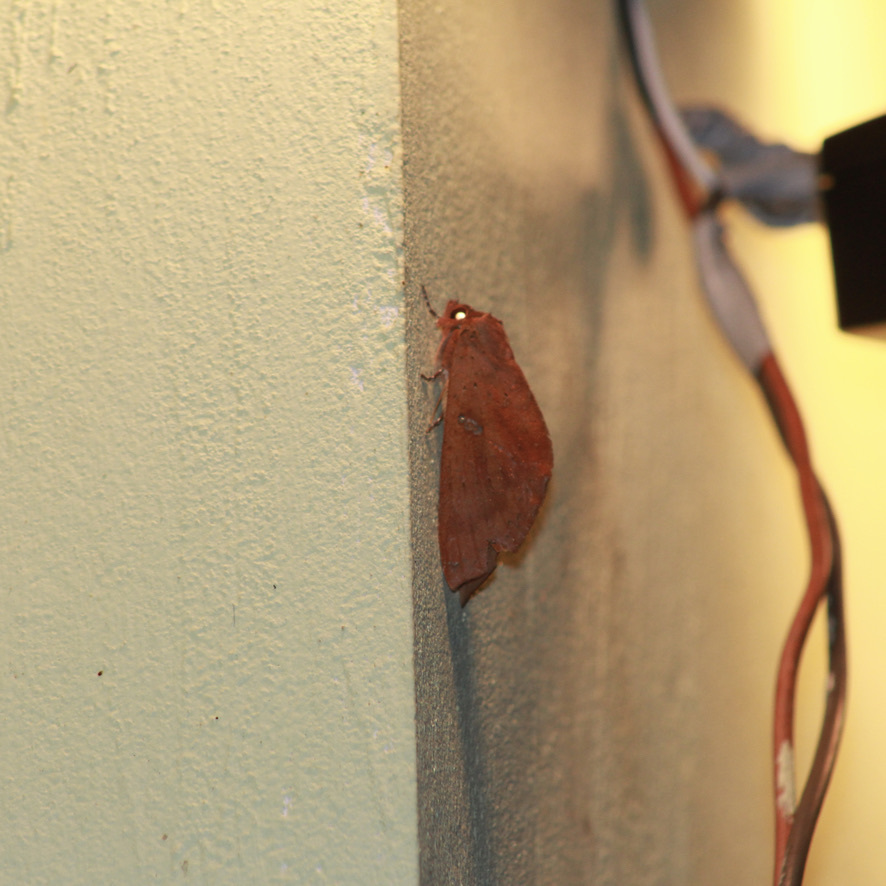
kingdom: Animalia
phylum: Arthropoda
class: Insecta
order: Lepidoptera
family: Notodontidae
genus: Hapigia
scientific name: Hapigia raatzi
